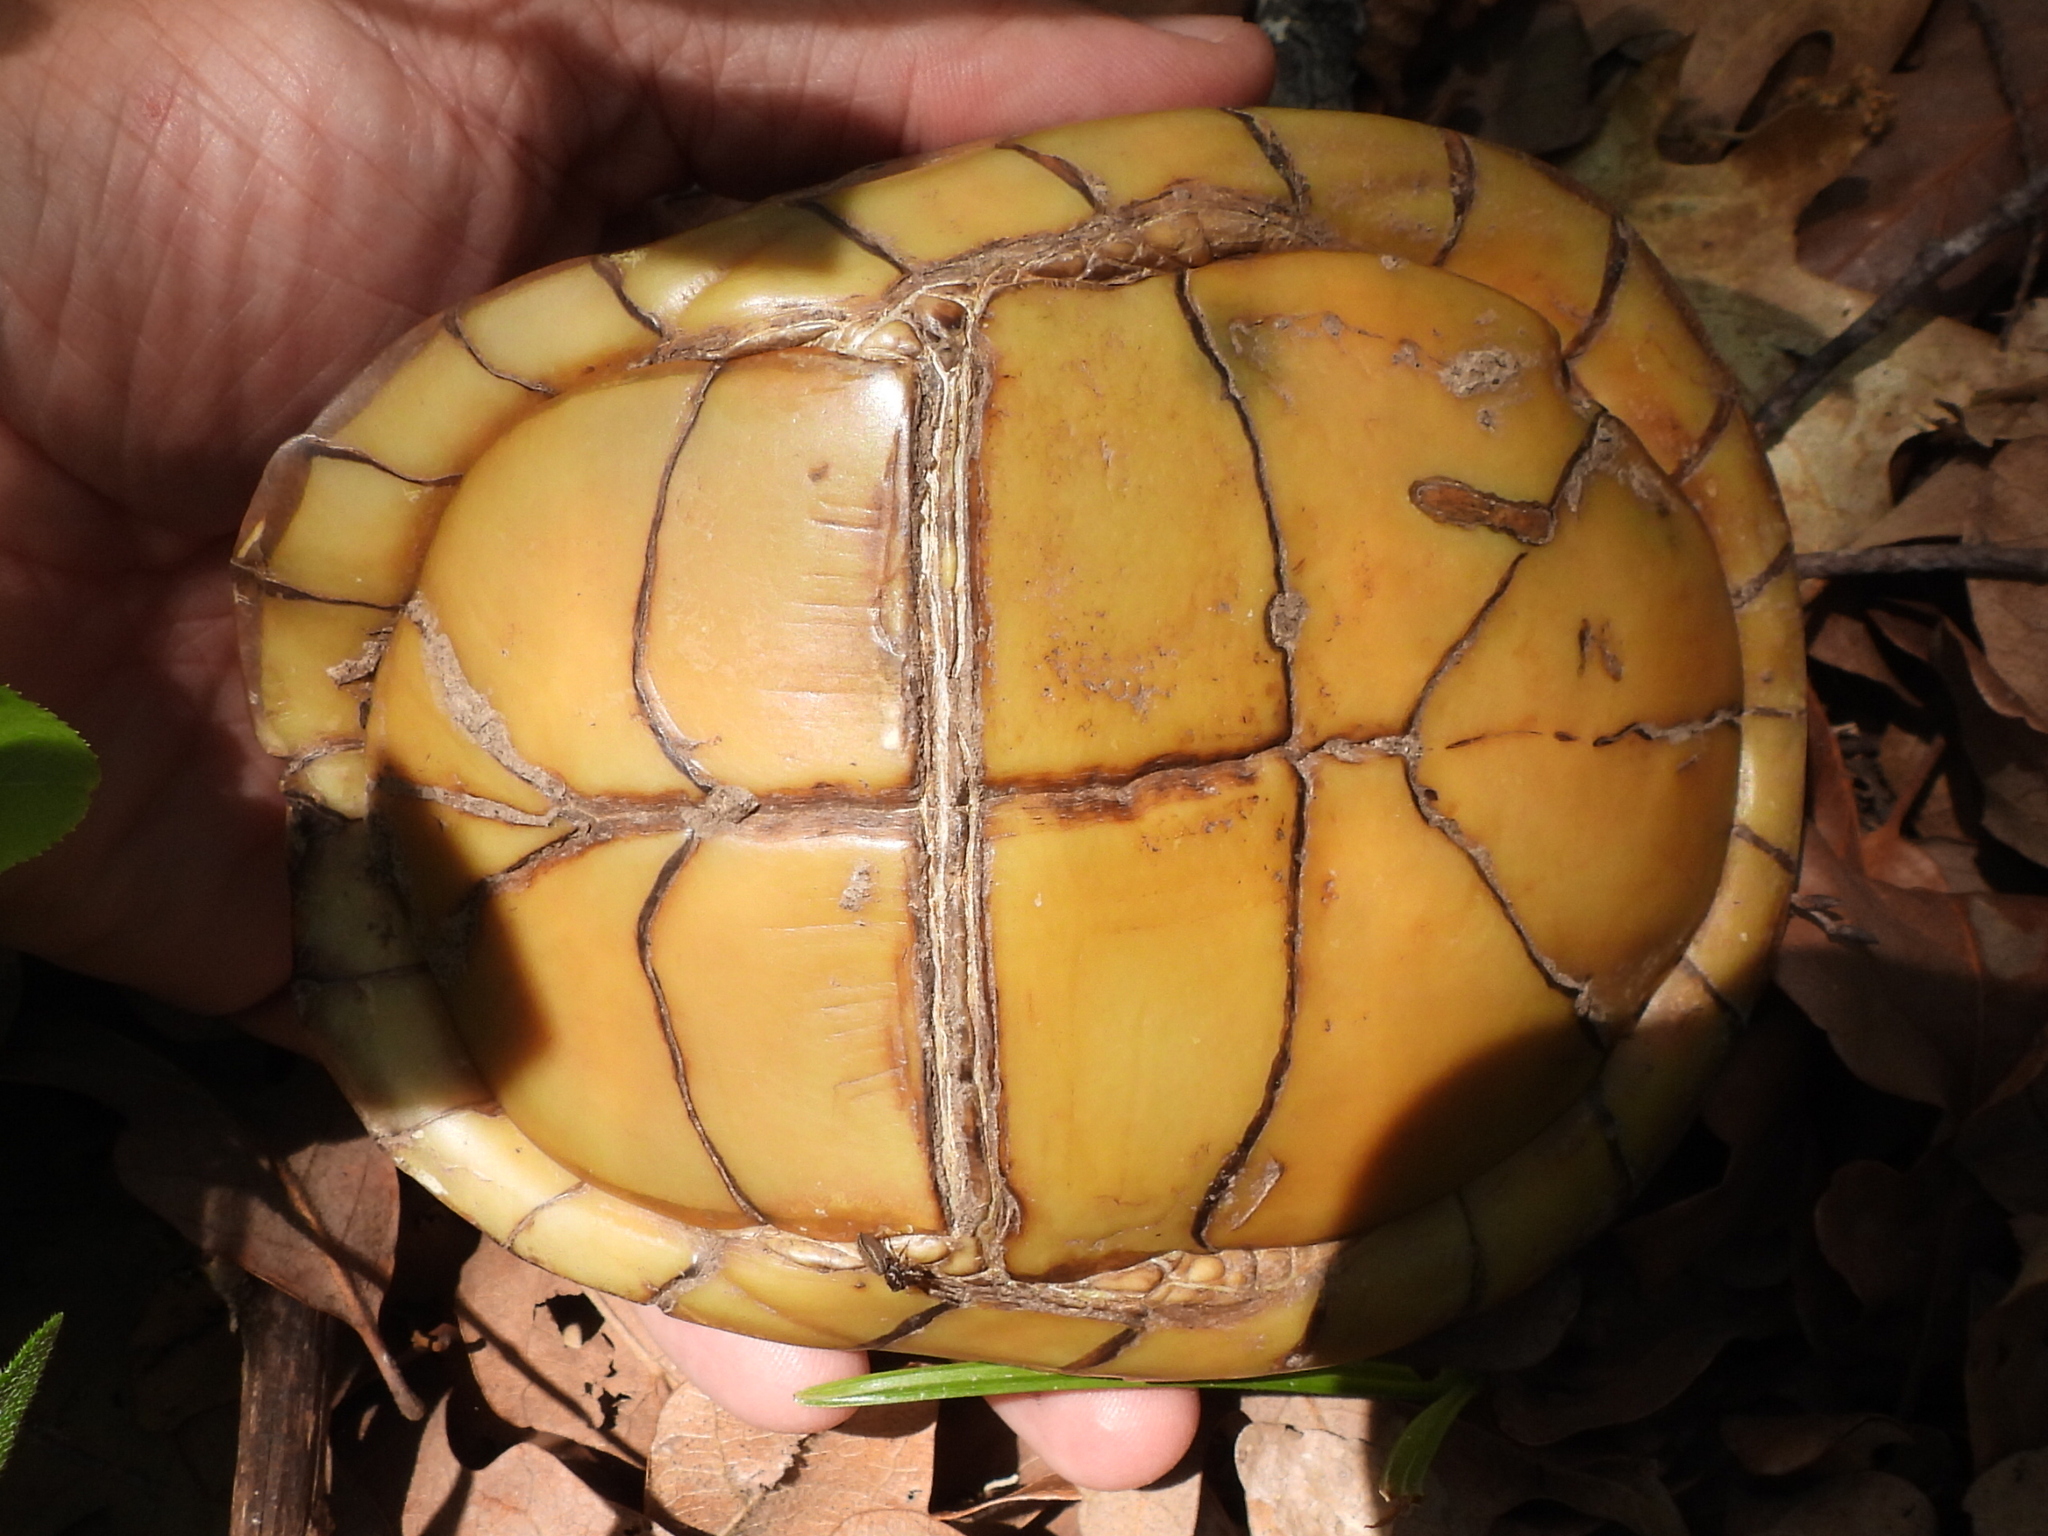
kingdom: Animalia
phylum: Chordata
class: Testudines
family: Emydidae
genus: Terrapene
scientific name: Terrapene carolina
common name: Common box turtle
